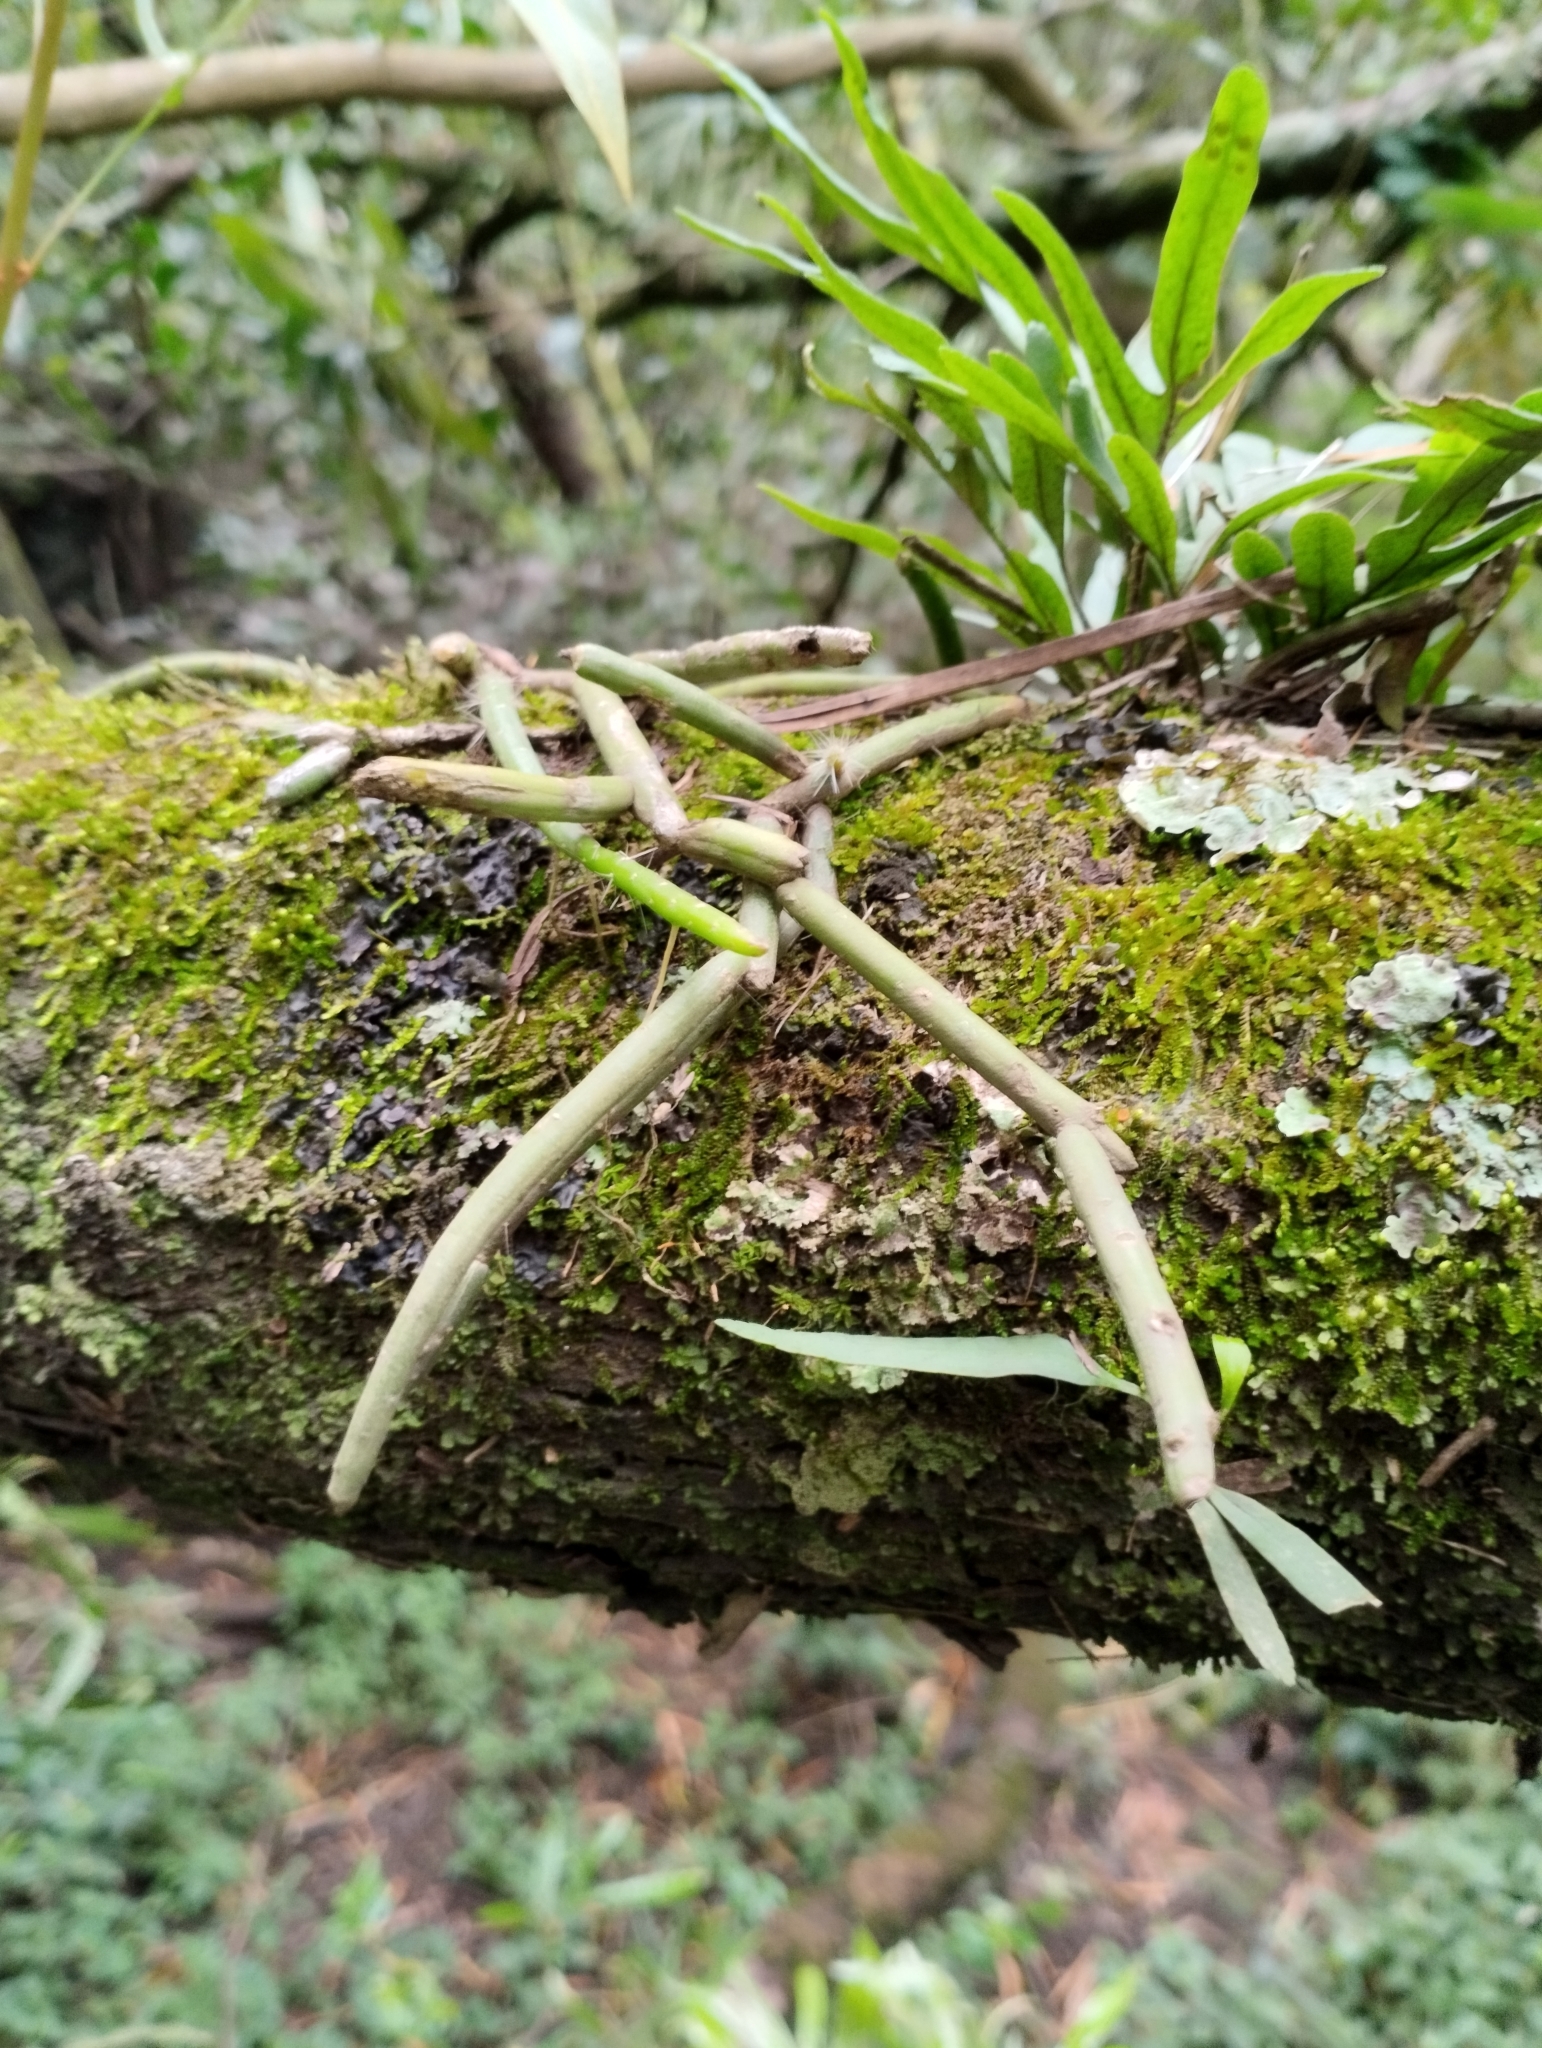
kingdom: Plantae
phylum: Tracheophyta
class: Magnoliopsida
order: Caryophyllales
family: Cactaceae
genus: Lepismium
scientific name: Lepismium lumbricoides
